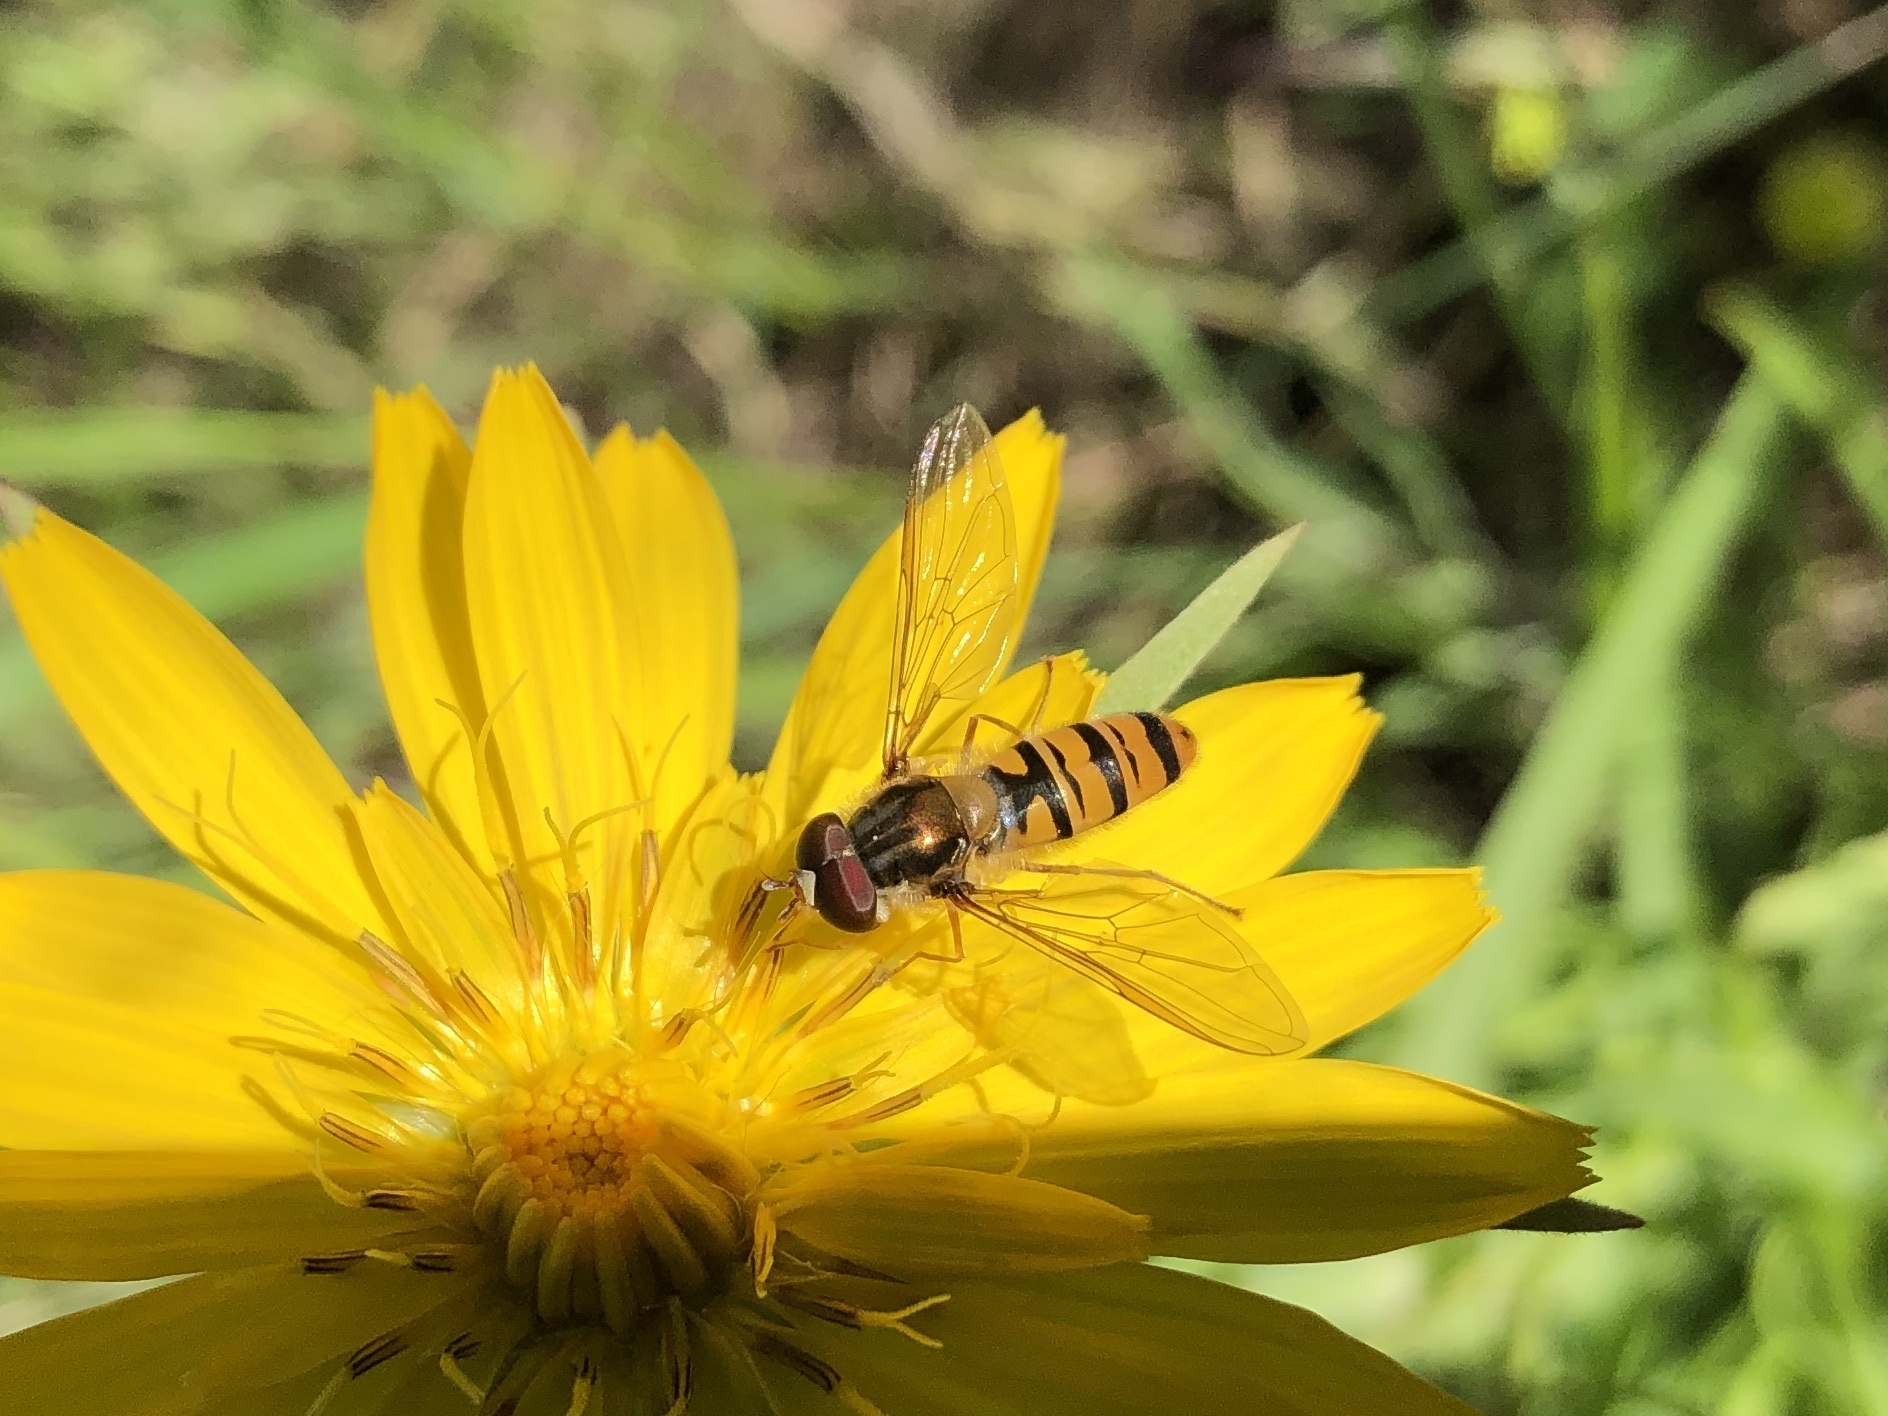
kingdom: Animalia
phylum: Arthropoda
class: Insecta
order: Diptera
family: Syrphidae
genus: Episyrphus
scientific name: Episyrphus balteatus
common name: Marmalade hoverfly
